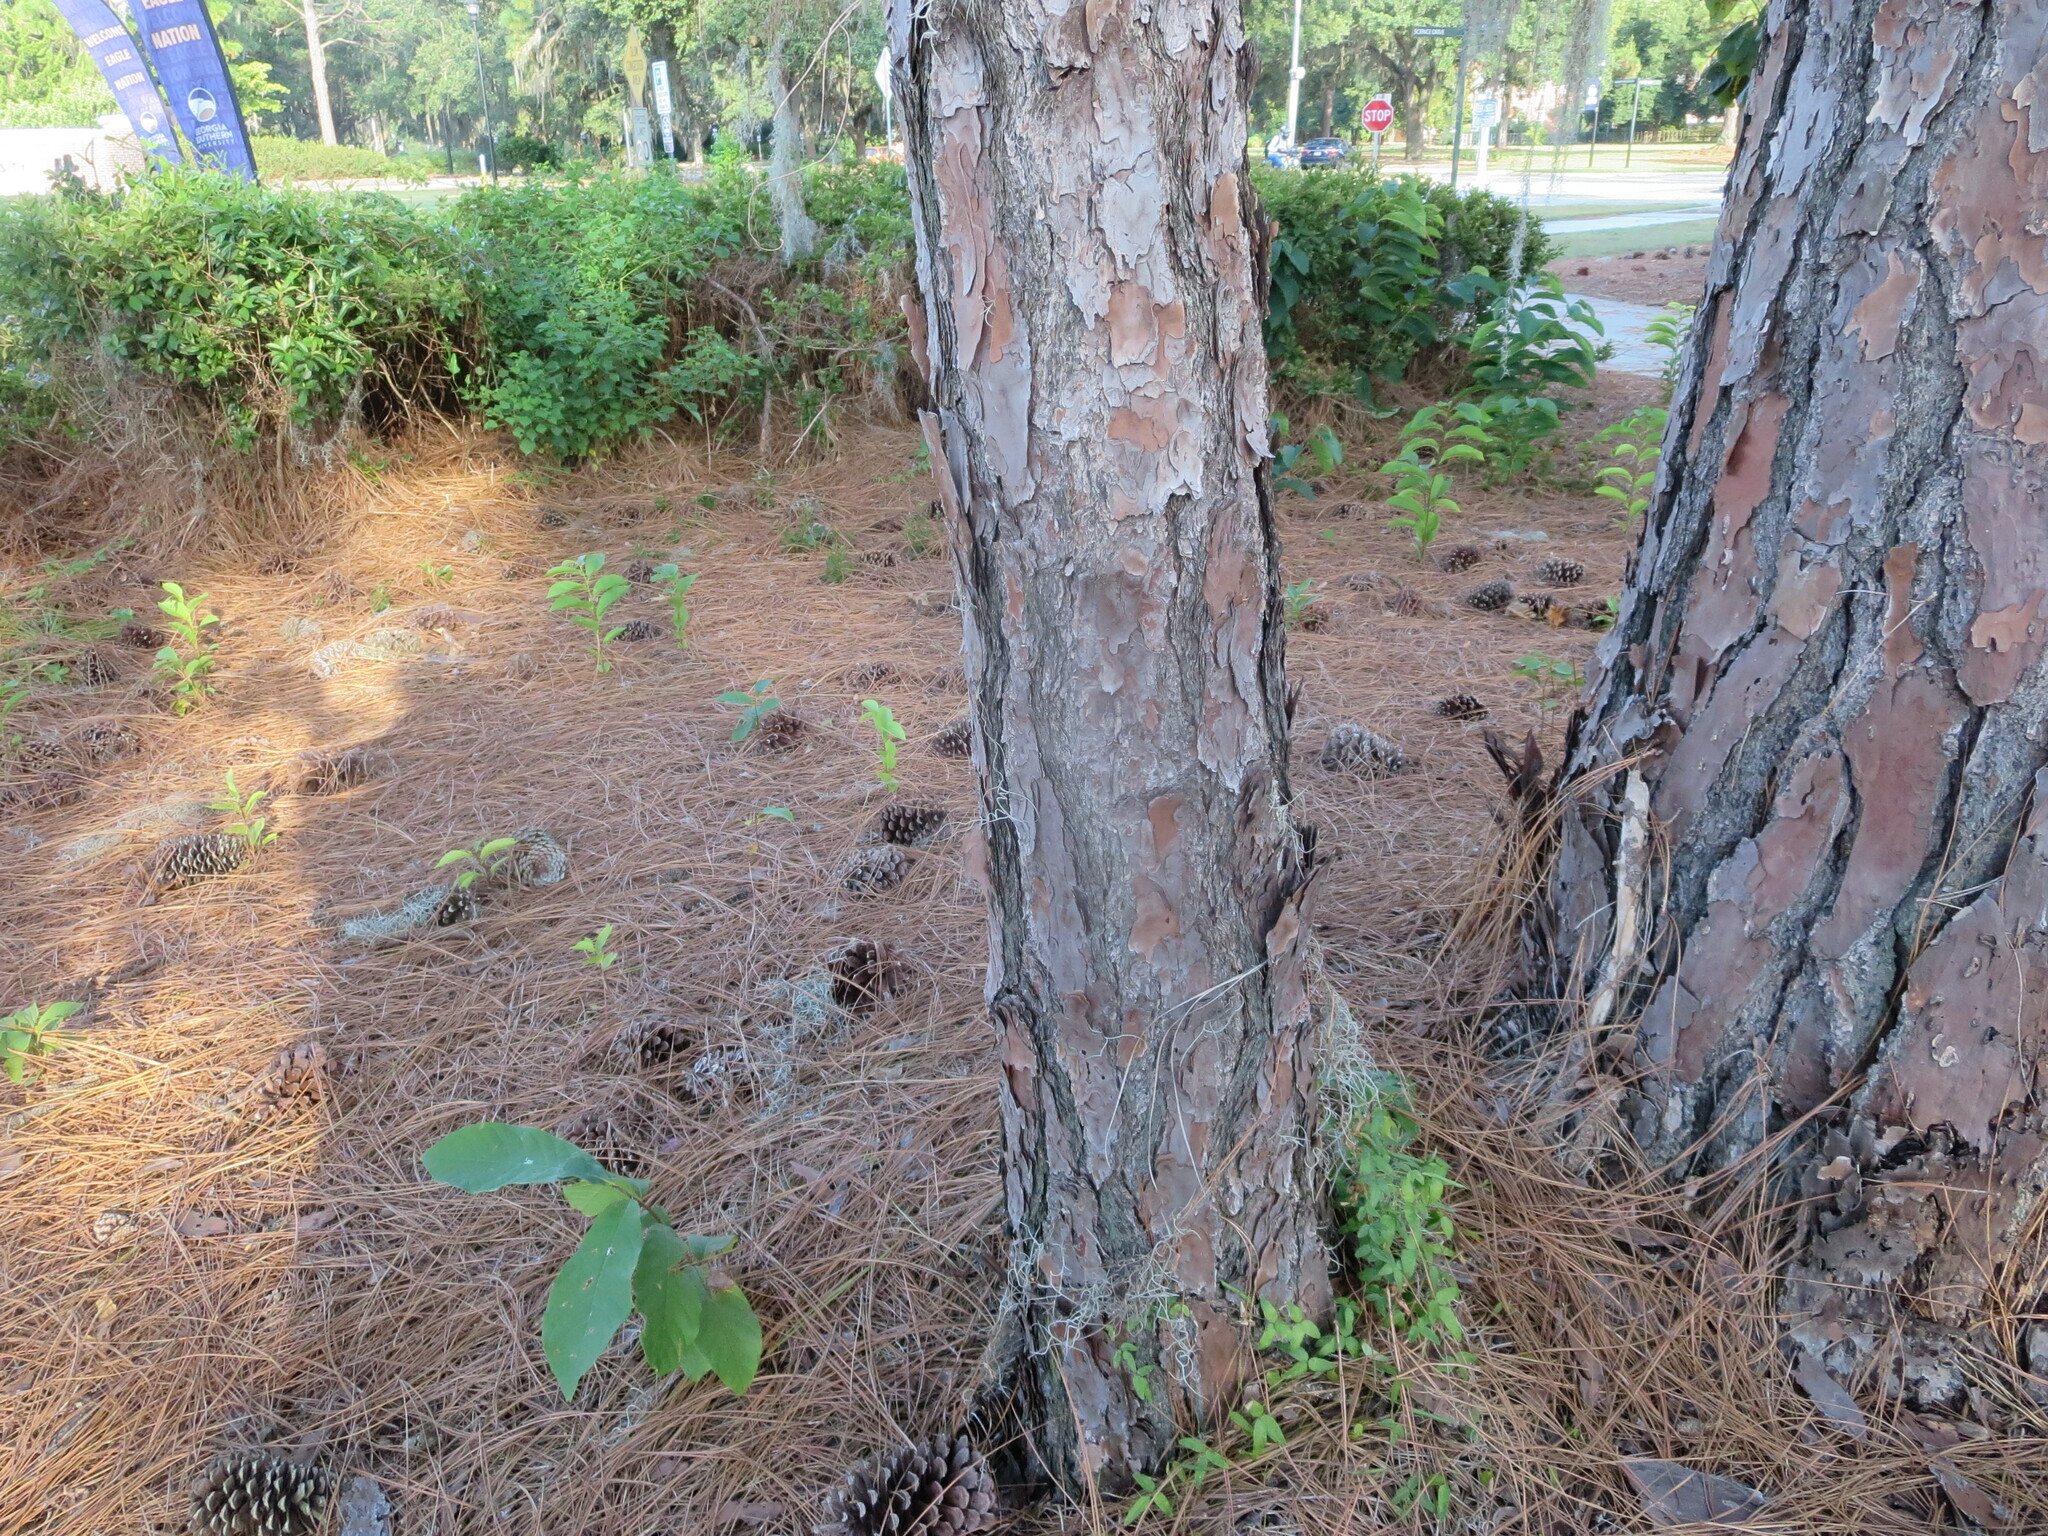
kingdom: Plantae
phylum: Tracheophyta
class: Pinopsida
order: Pinales
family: Pinaceae
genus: Pinus
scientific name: Pinus palustris
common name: Longleaf pine
